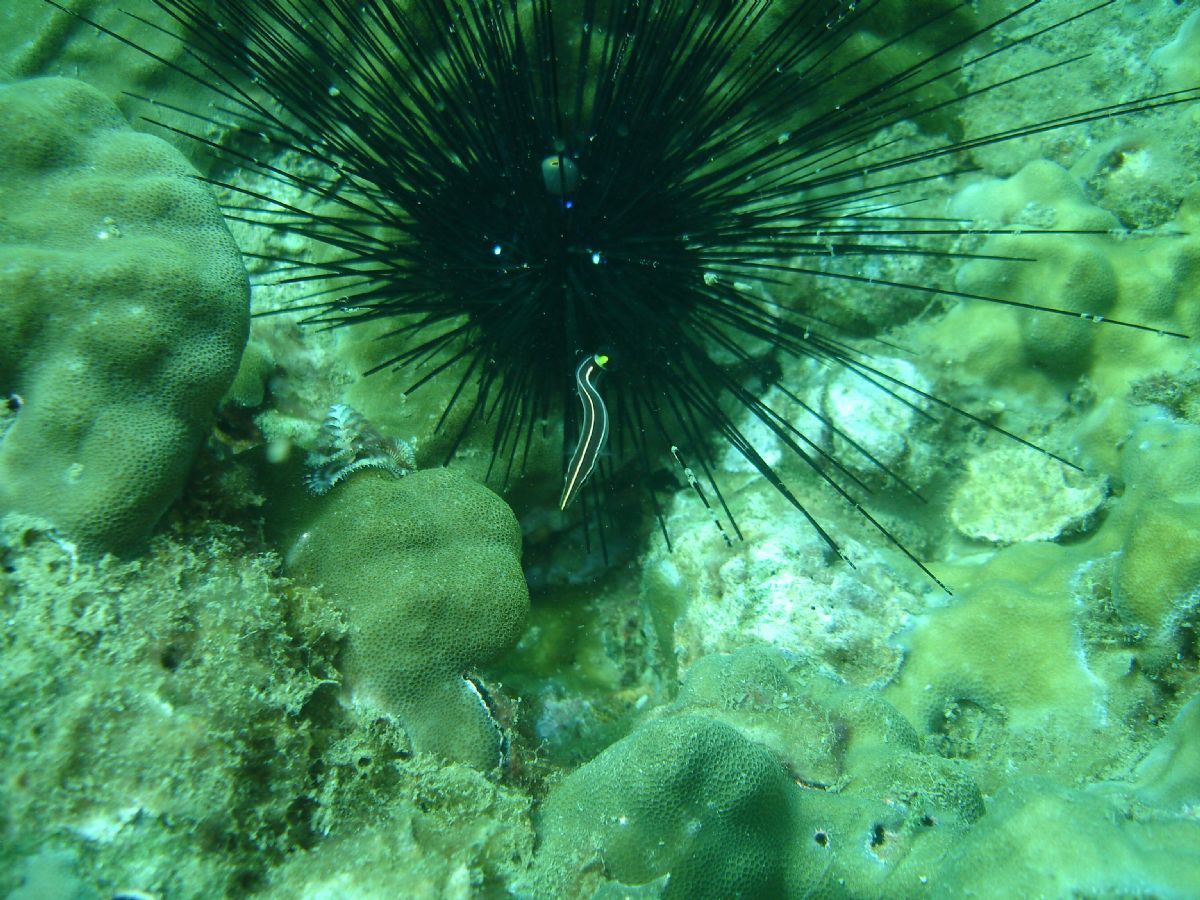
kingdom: Animalia
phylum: Chordata
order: Gobiesociformes
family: Gobiesocidae
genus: Diademichthys
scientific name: Diademichthys lineatus
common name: Urchin clingfish
